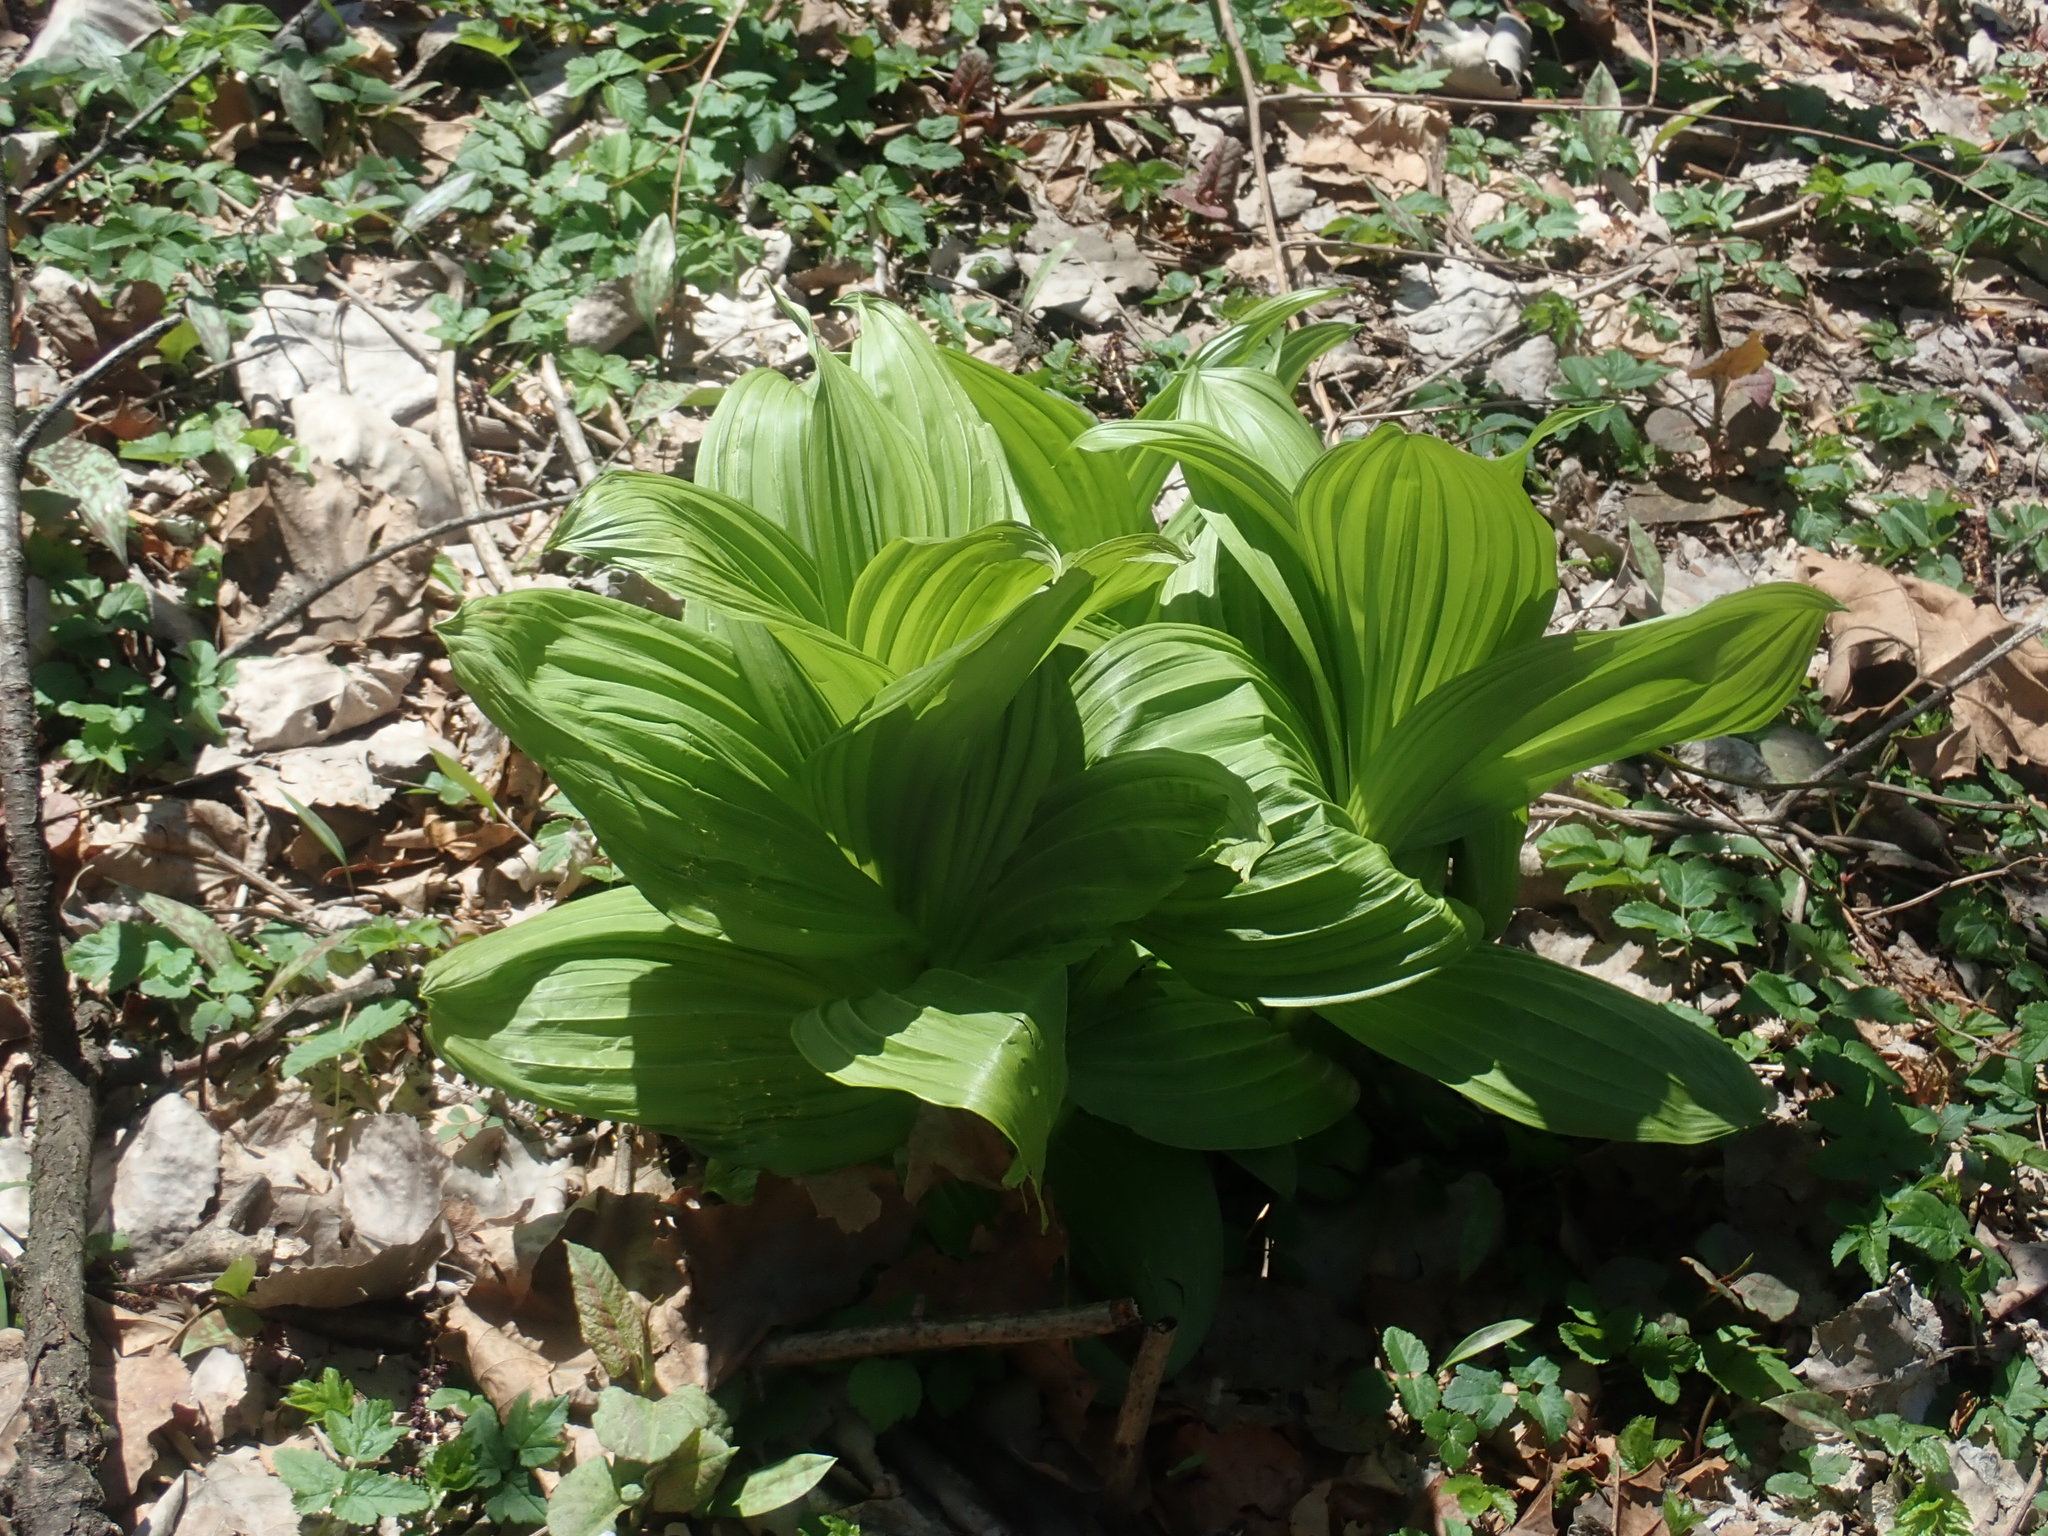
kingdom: Plantae
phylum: Tracheophyta
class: Liliopsida
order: Liliales
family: Melanthiaceae
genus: Veratrum
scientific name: Veratrum viride
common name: American false hellebore
